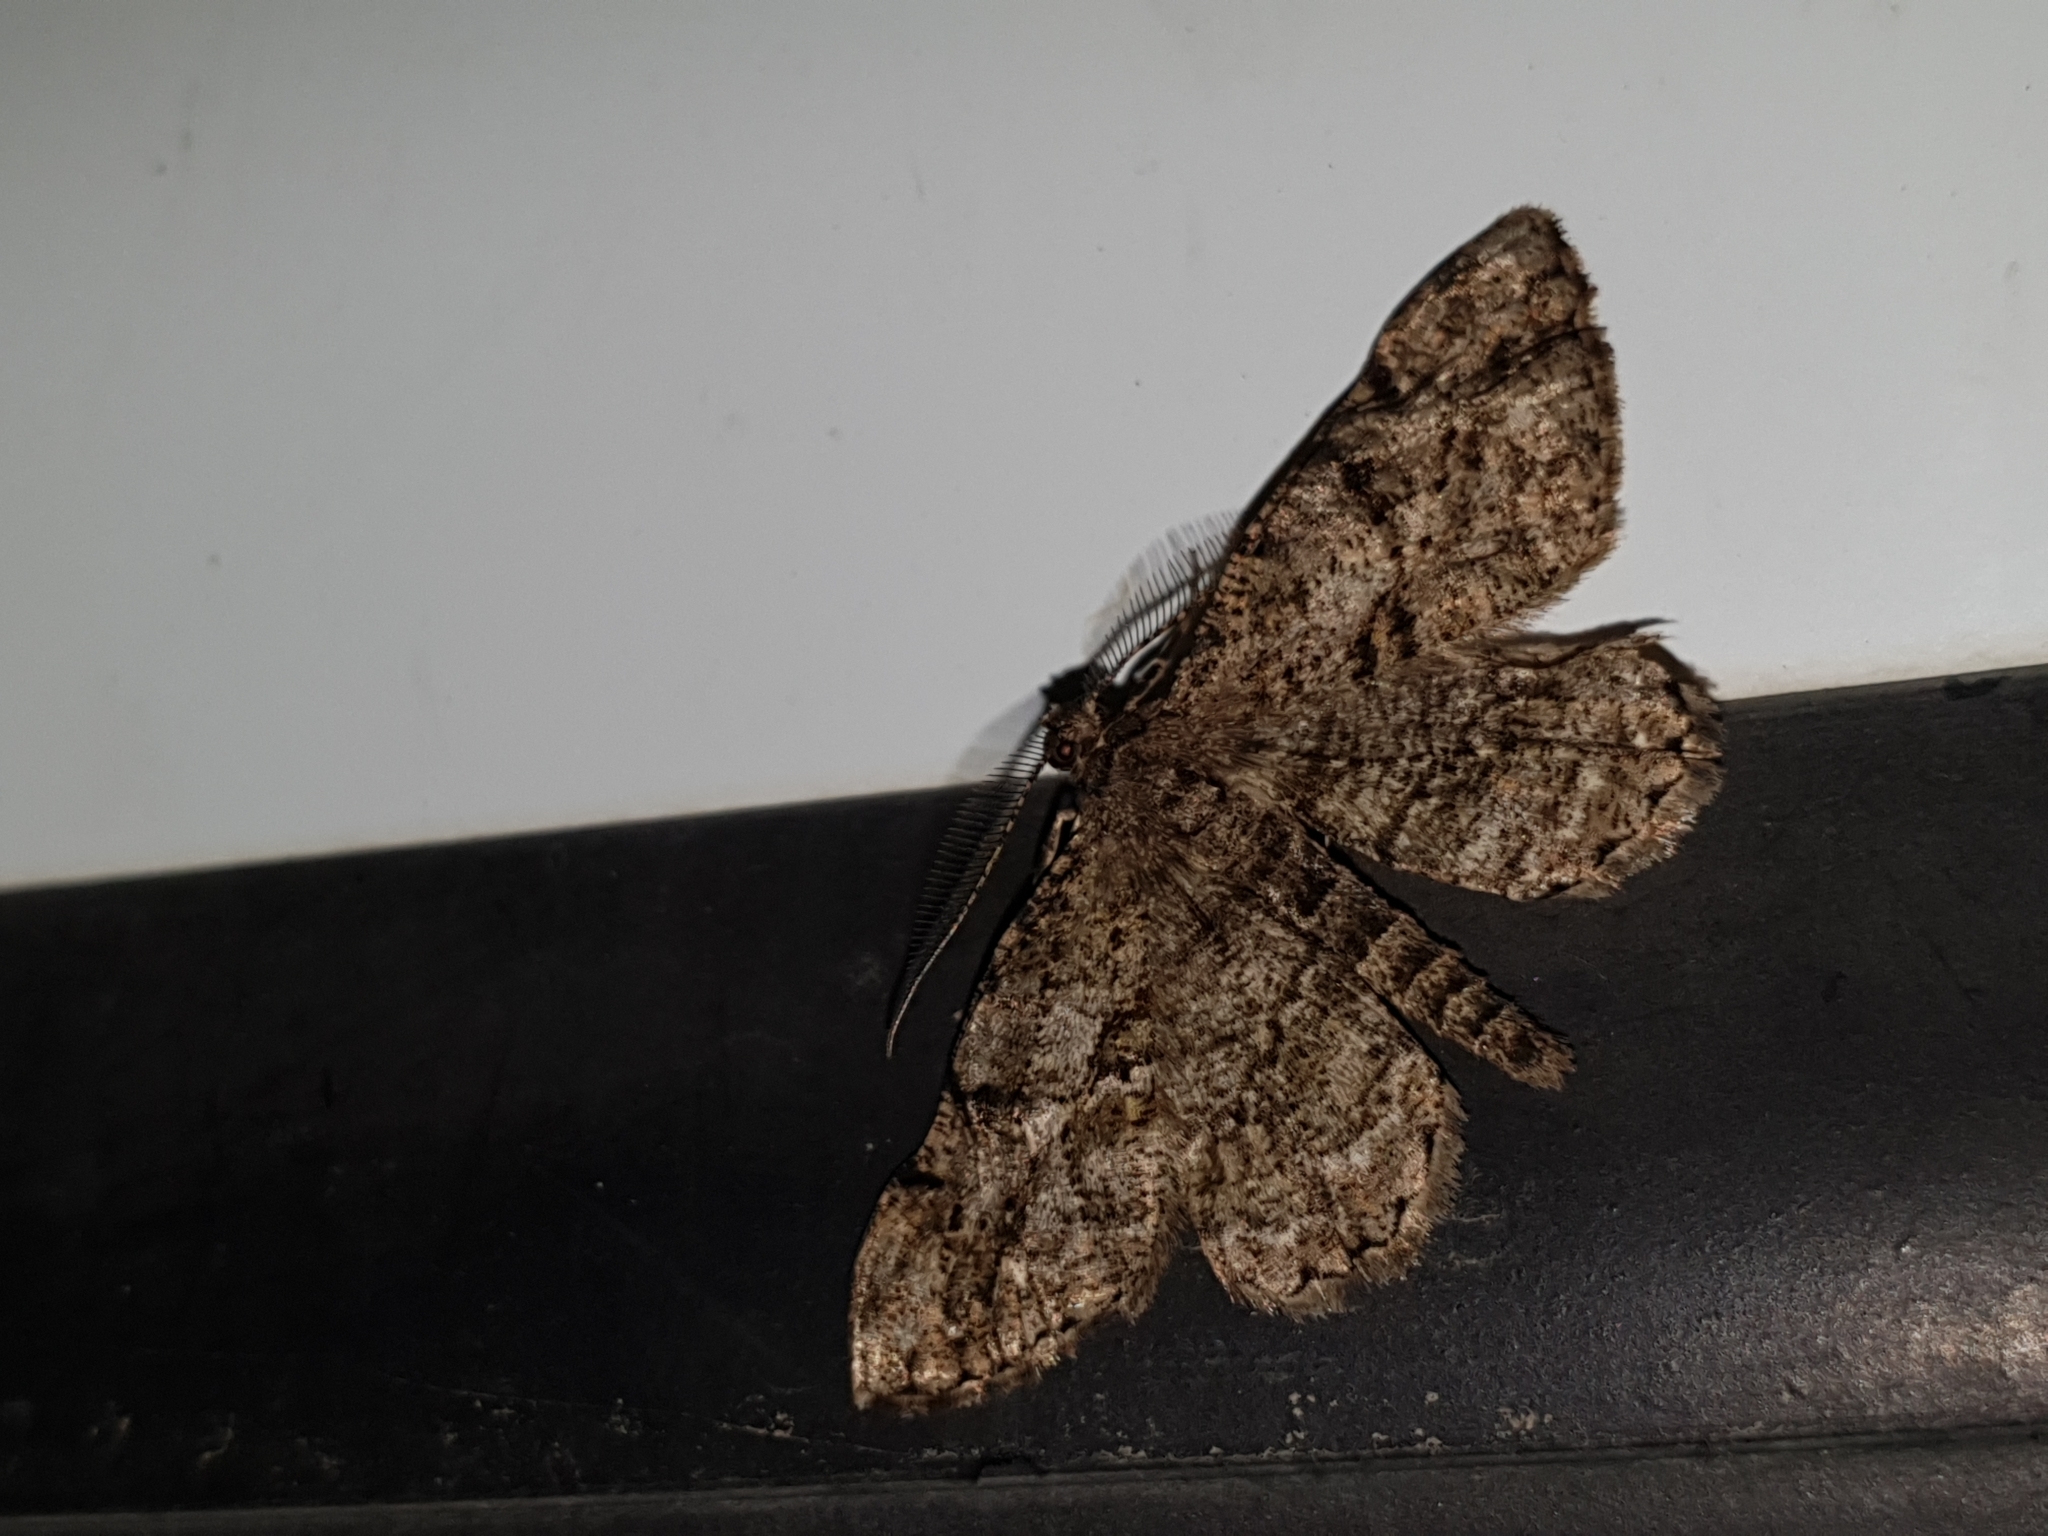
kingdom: Animalia
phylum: Arthropoda
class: Insecta
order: Lepidoptera
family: Geometridae
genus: Peribatodes
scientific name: Peribatodes rhomboidaria
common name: Willow beauty
